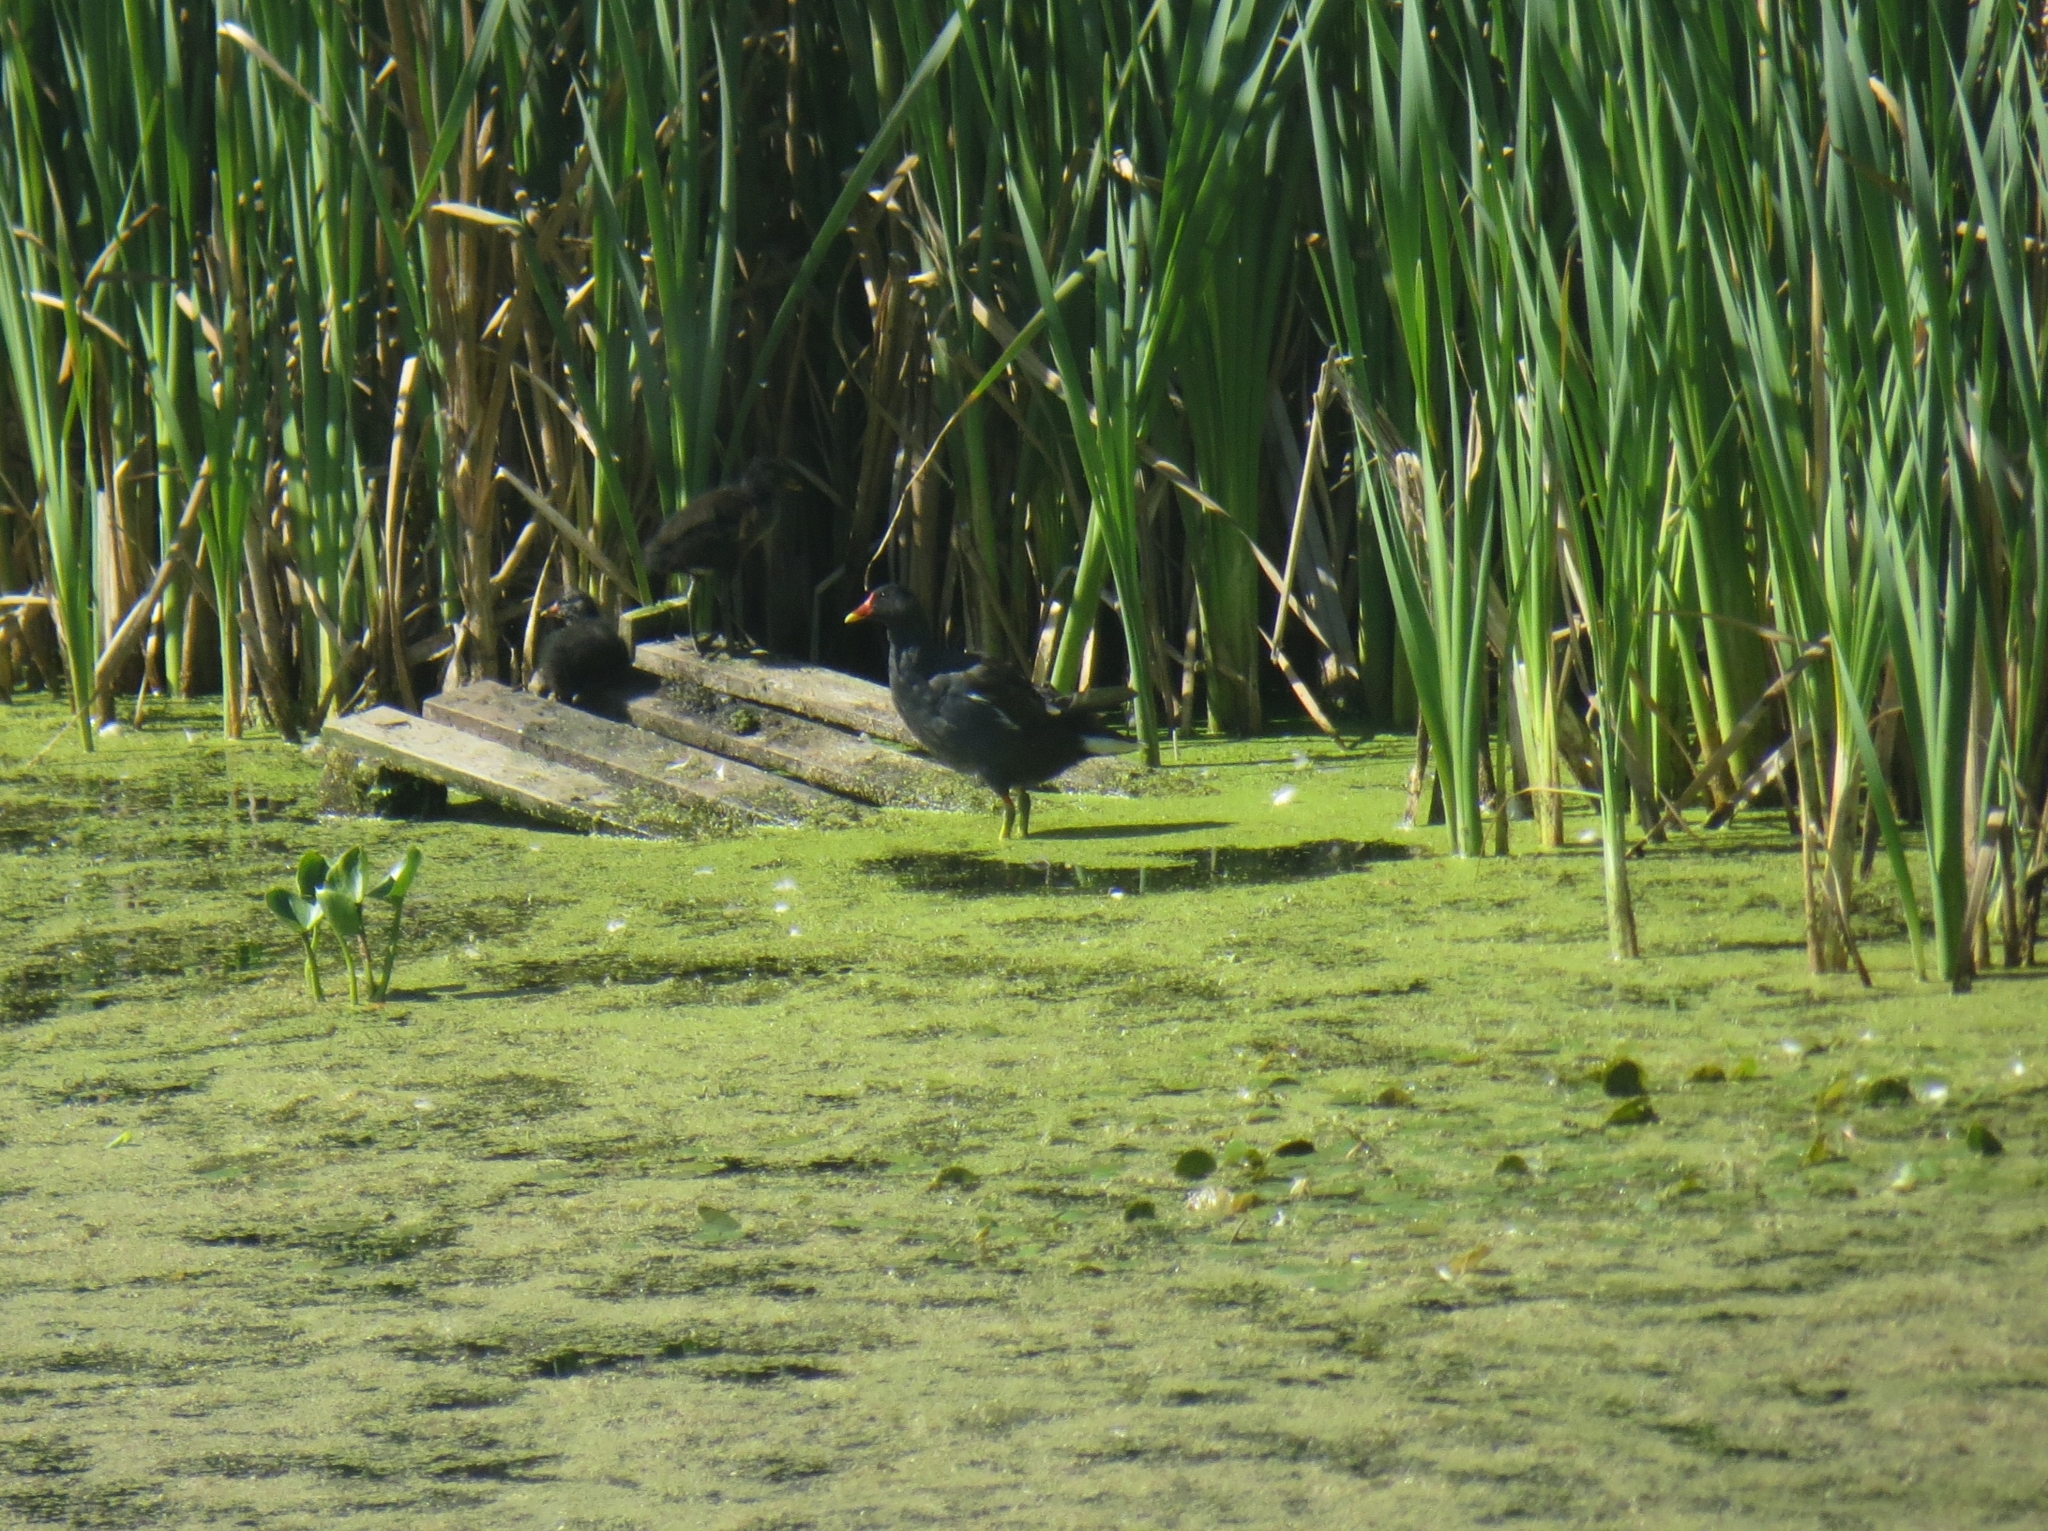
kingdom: Animalia
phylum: Chordata
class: Aves
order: Gruiformes
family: Rallidae
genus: Gallinula
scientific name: Gallinula chloropus
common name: Common moorhen
